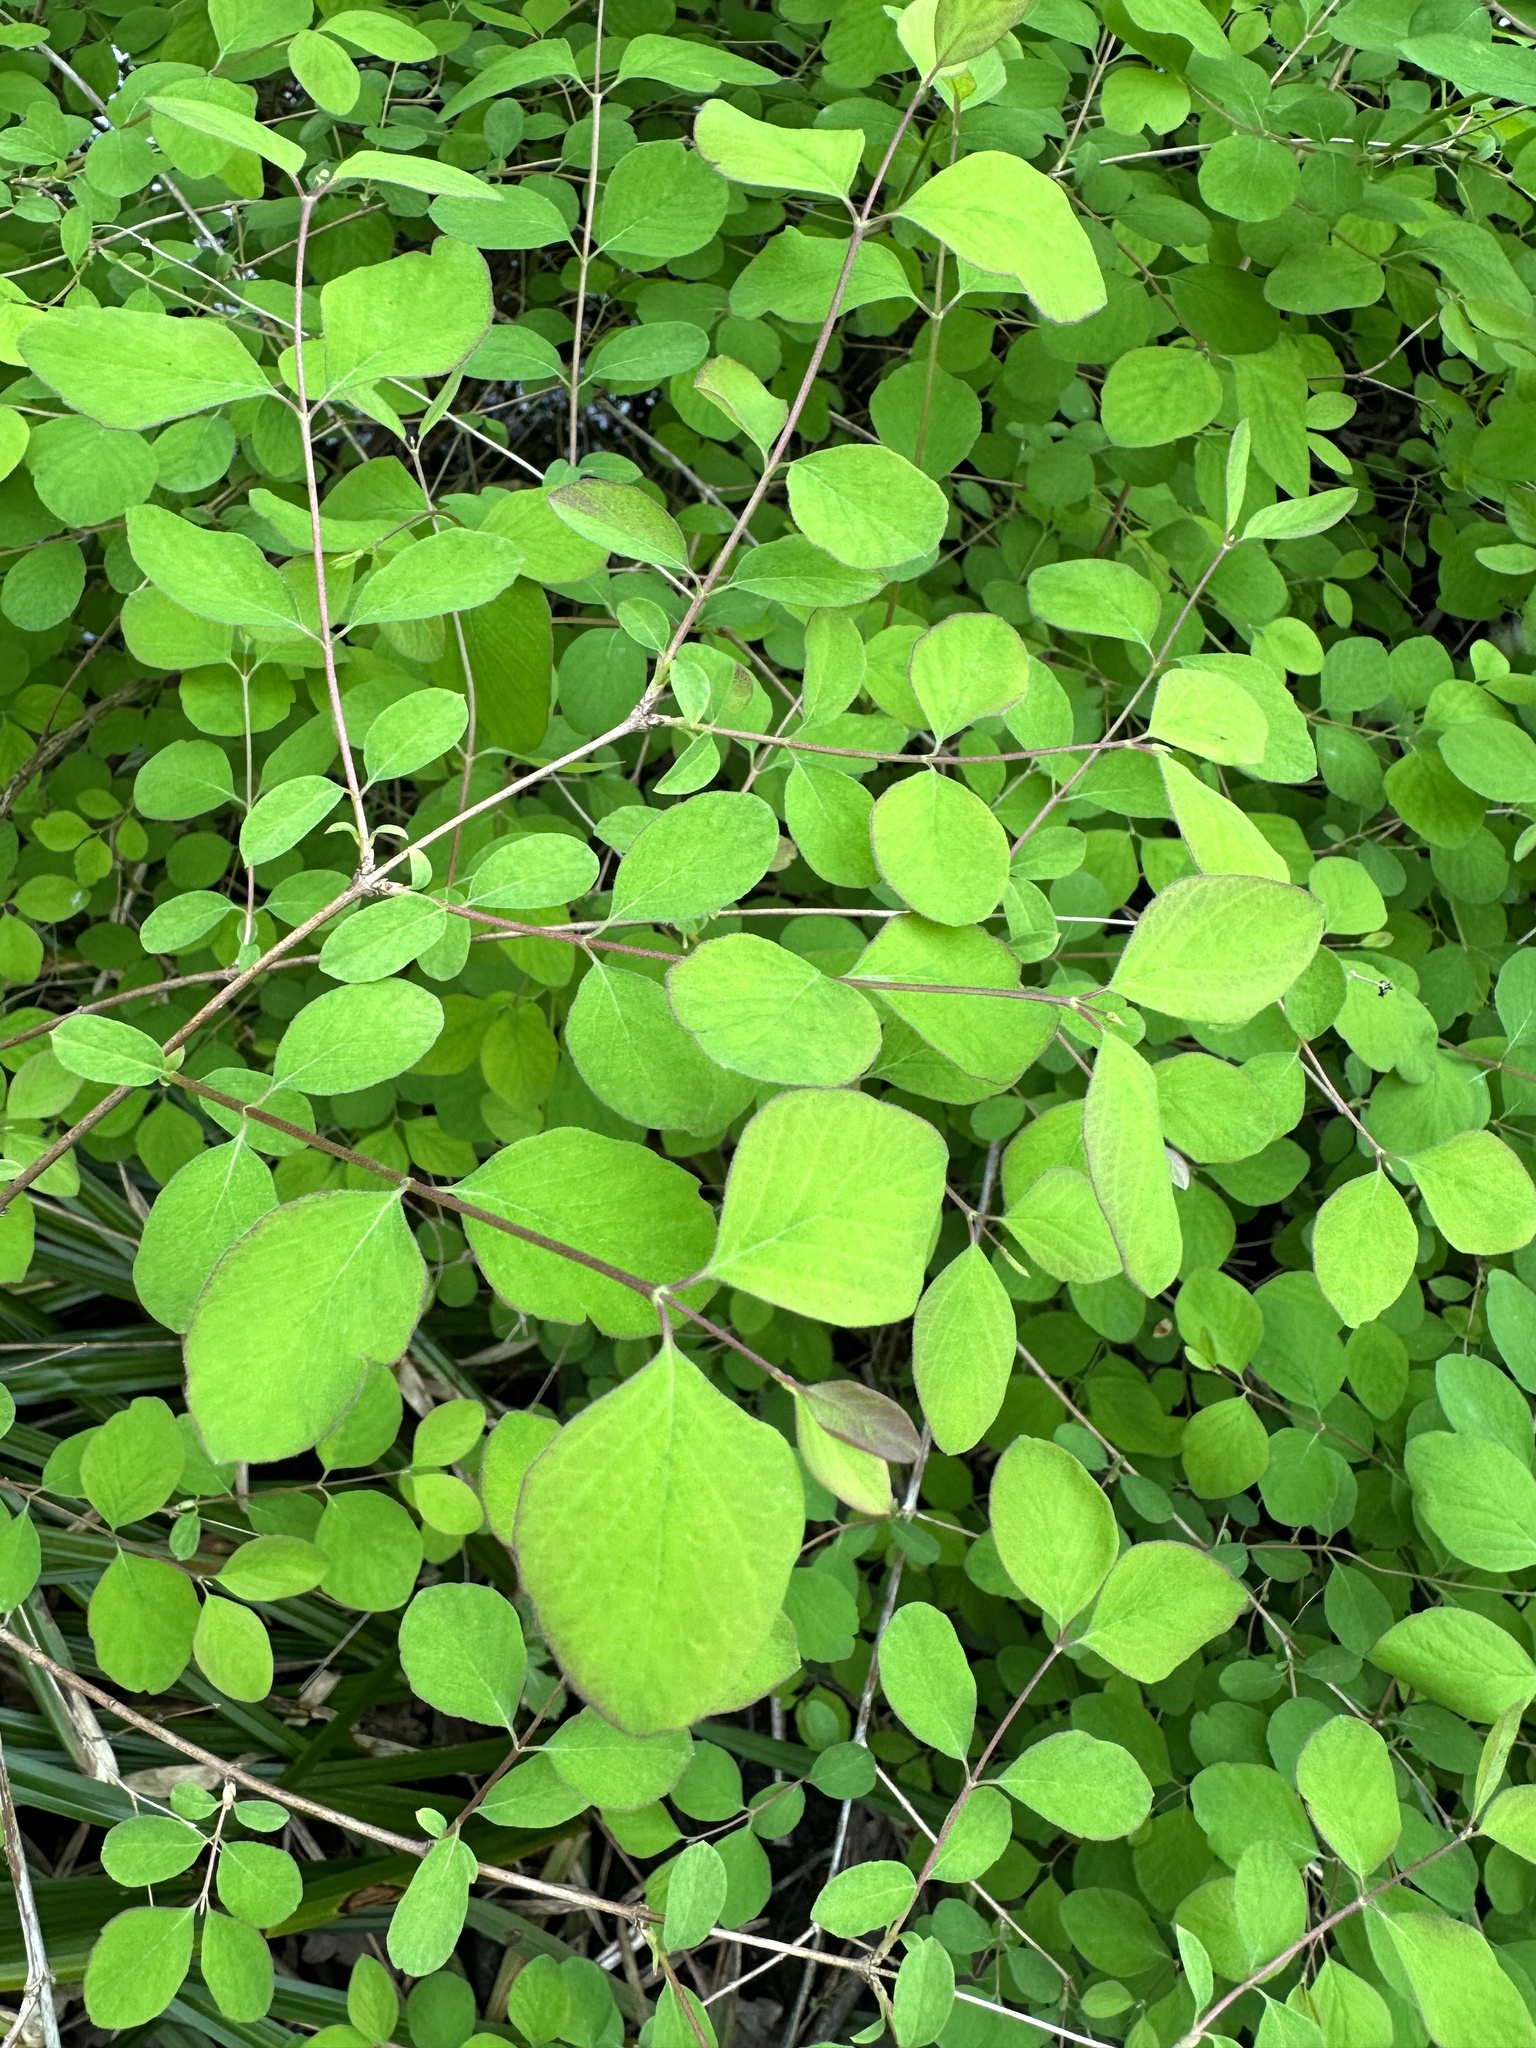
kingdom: Plantae
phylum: Tracheophyta
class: Magnoliopsida
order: Dipsacales
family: Caprifoliaceae
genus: Symphoricarpos
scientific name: Symphoricarpos albus
